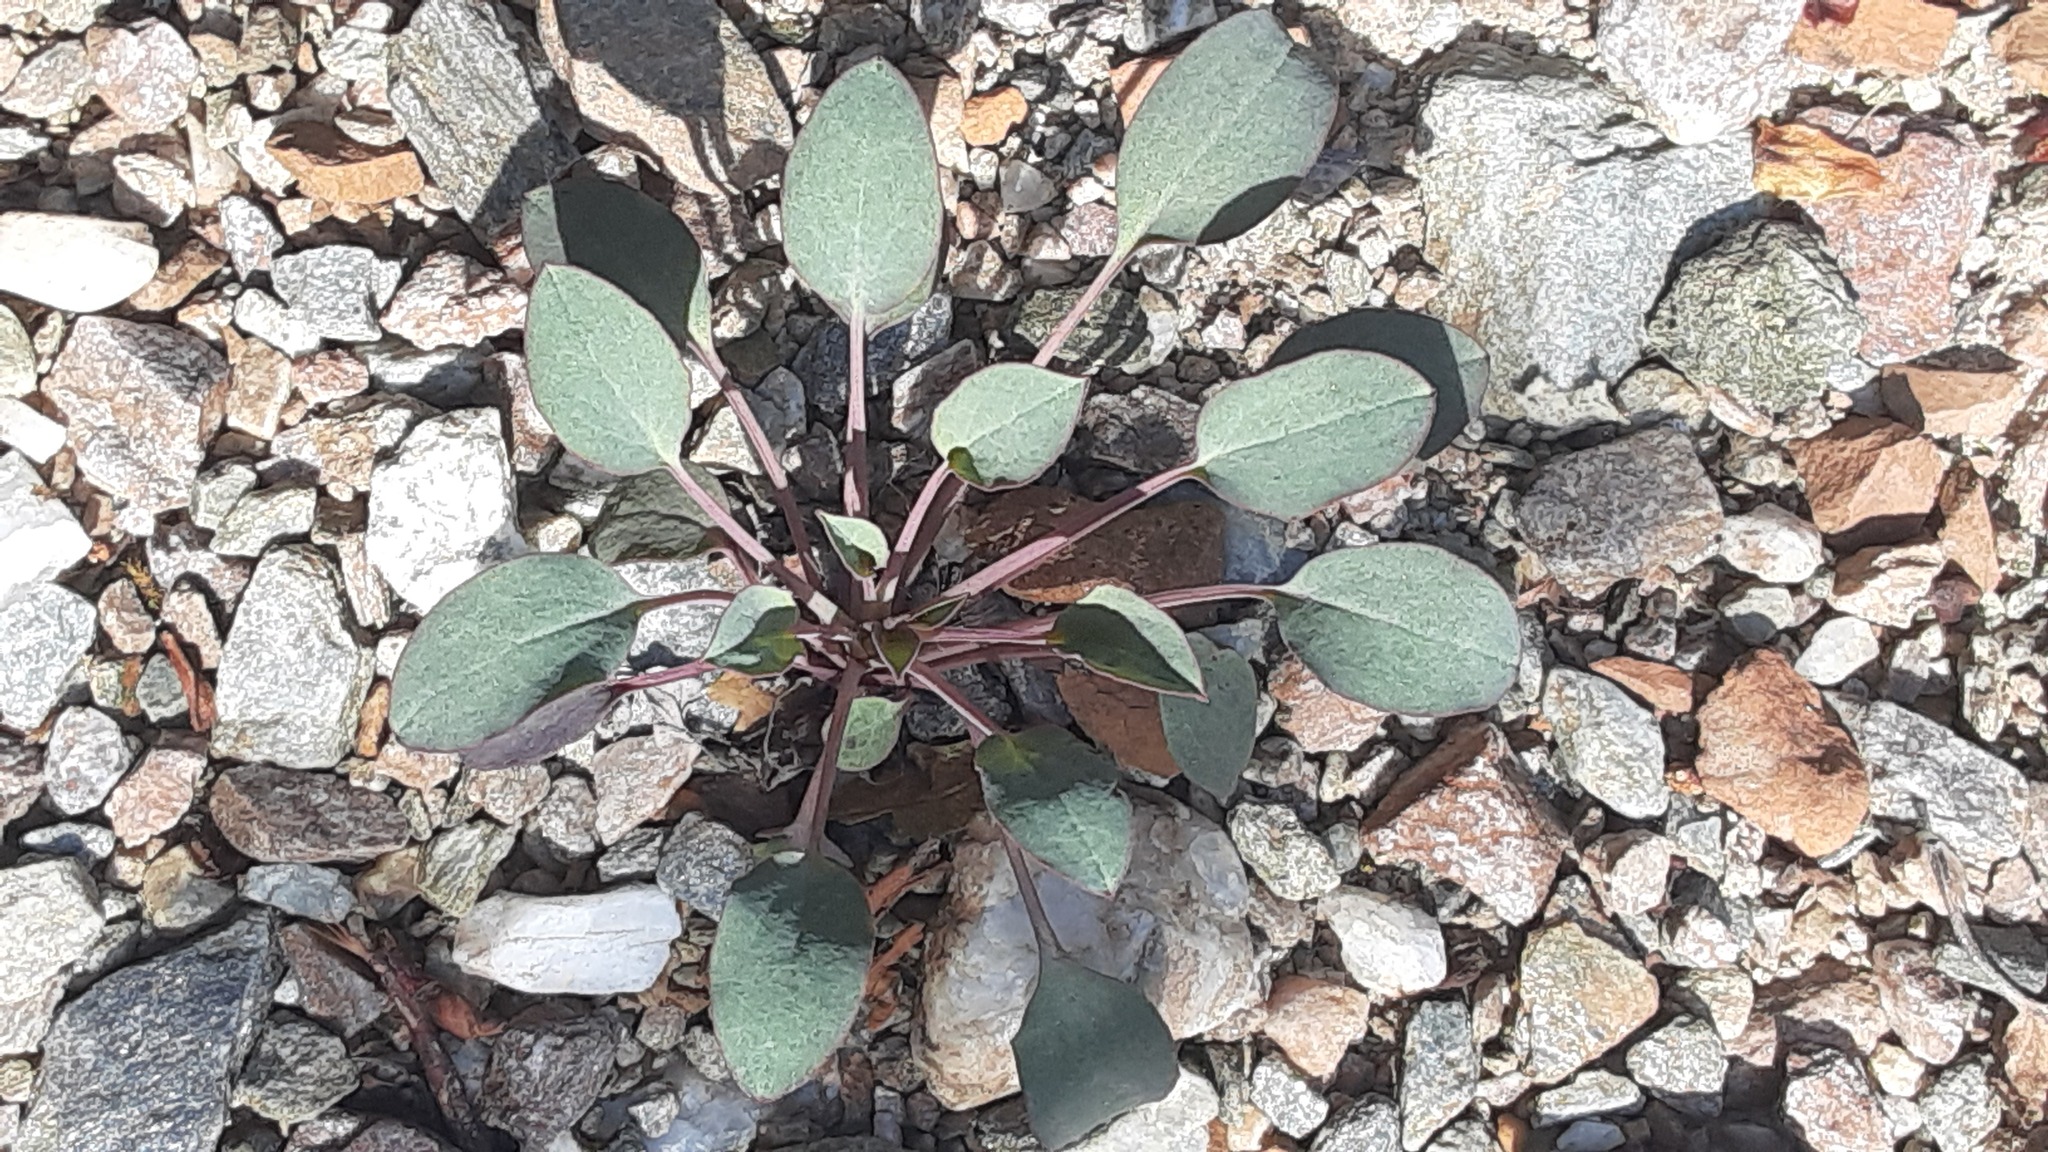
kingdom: Plantae
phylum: Tracheophyta
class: Magnoliopsida
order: Asterales
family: Asteraceae
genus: Askellia
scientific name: Askellia pygmaea
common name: Dwarf alpine hawksbeard
